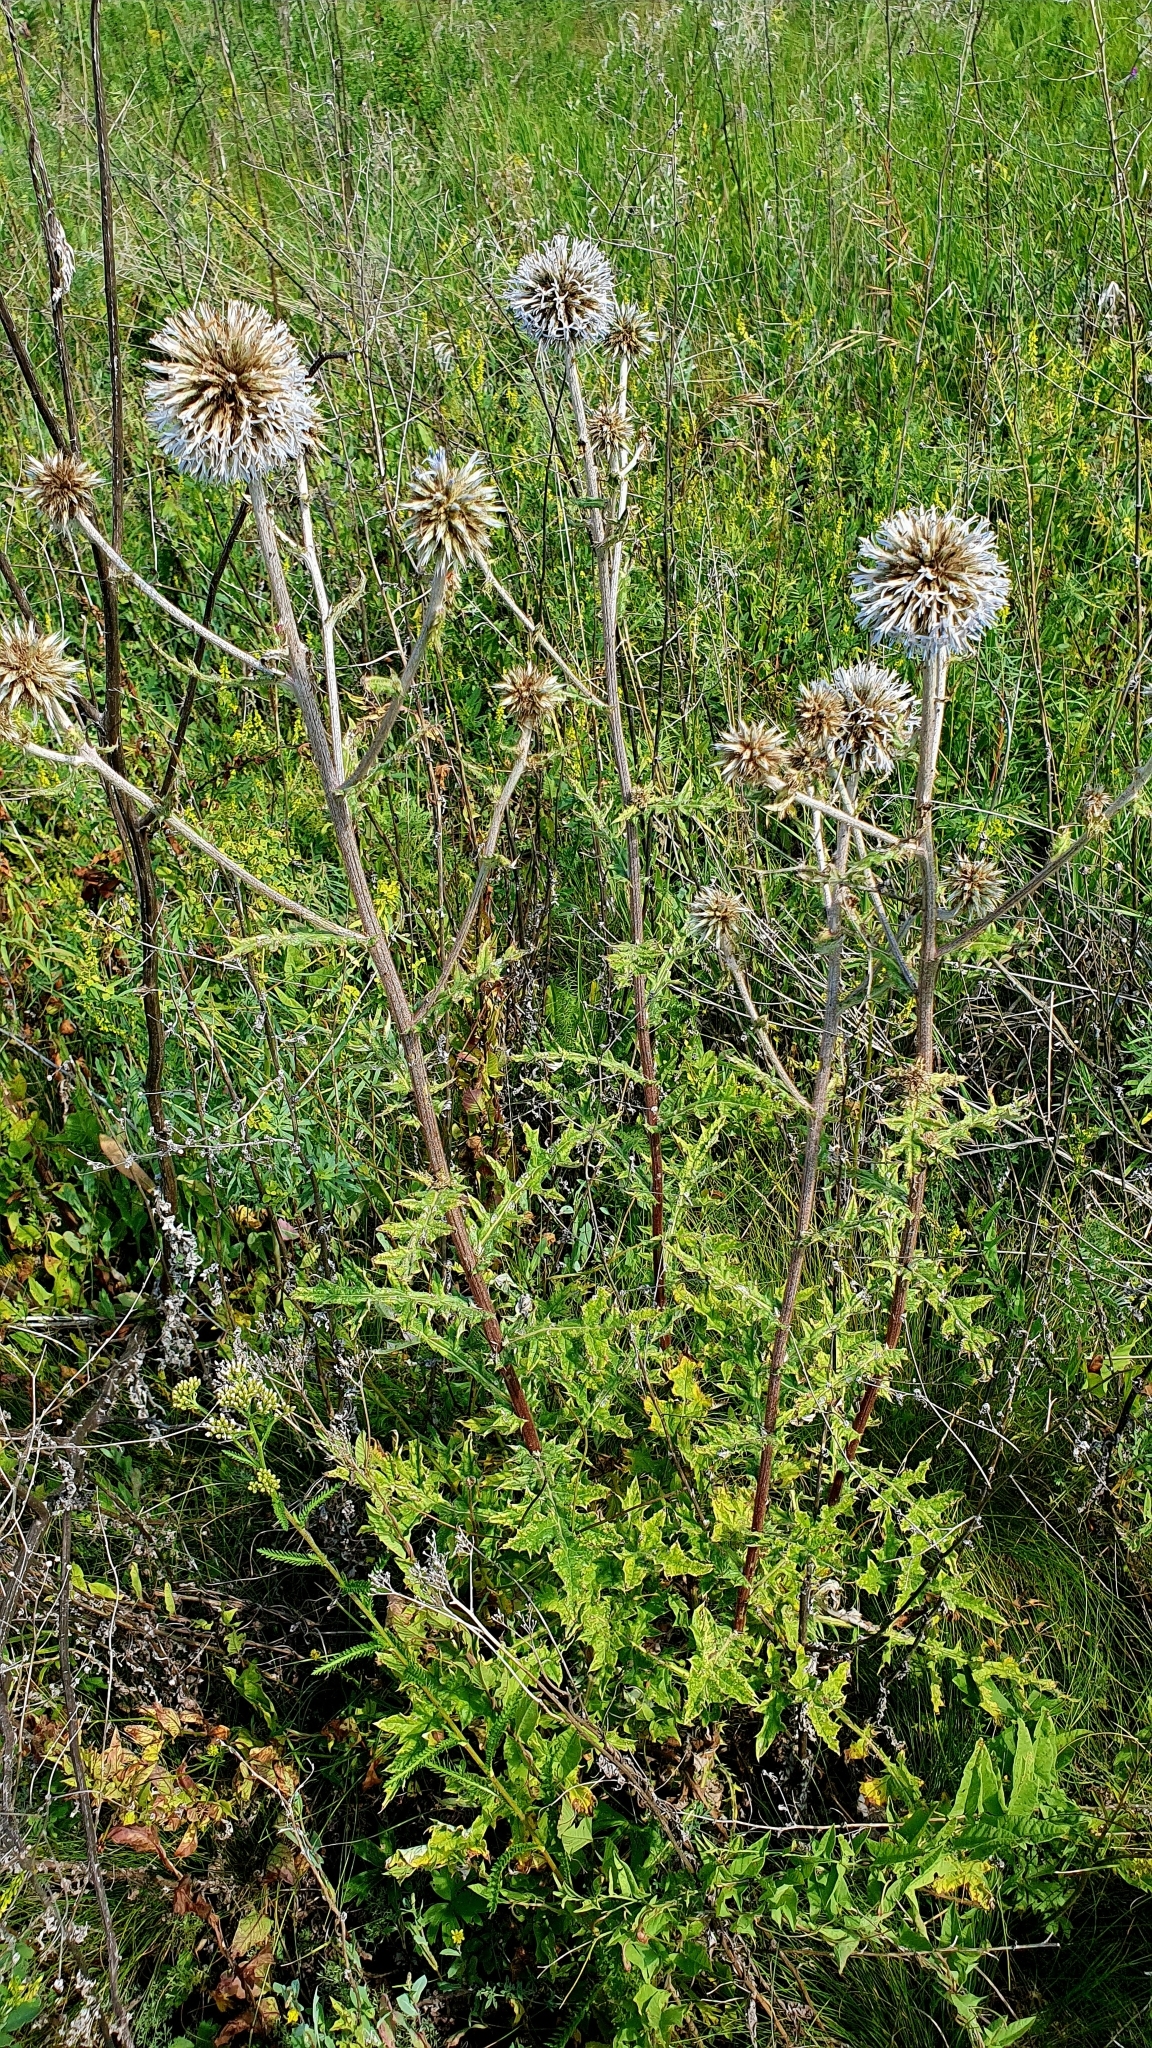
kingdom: Plantae
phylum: Tracheophyta
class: Magnoliopsida
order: Asterales
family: Asteraceae
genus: Echinops
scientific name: Echinops sphaerocephalus
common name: Glandular globe-thistle
